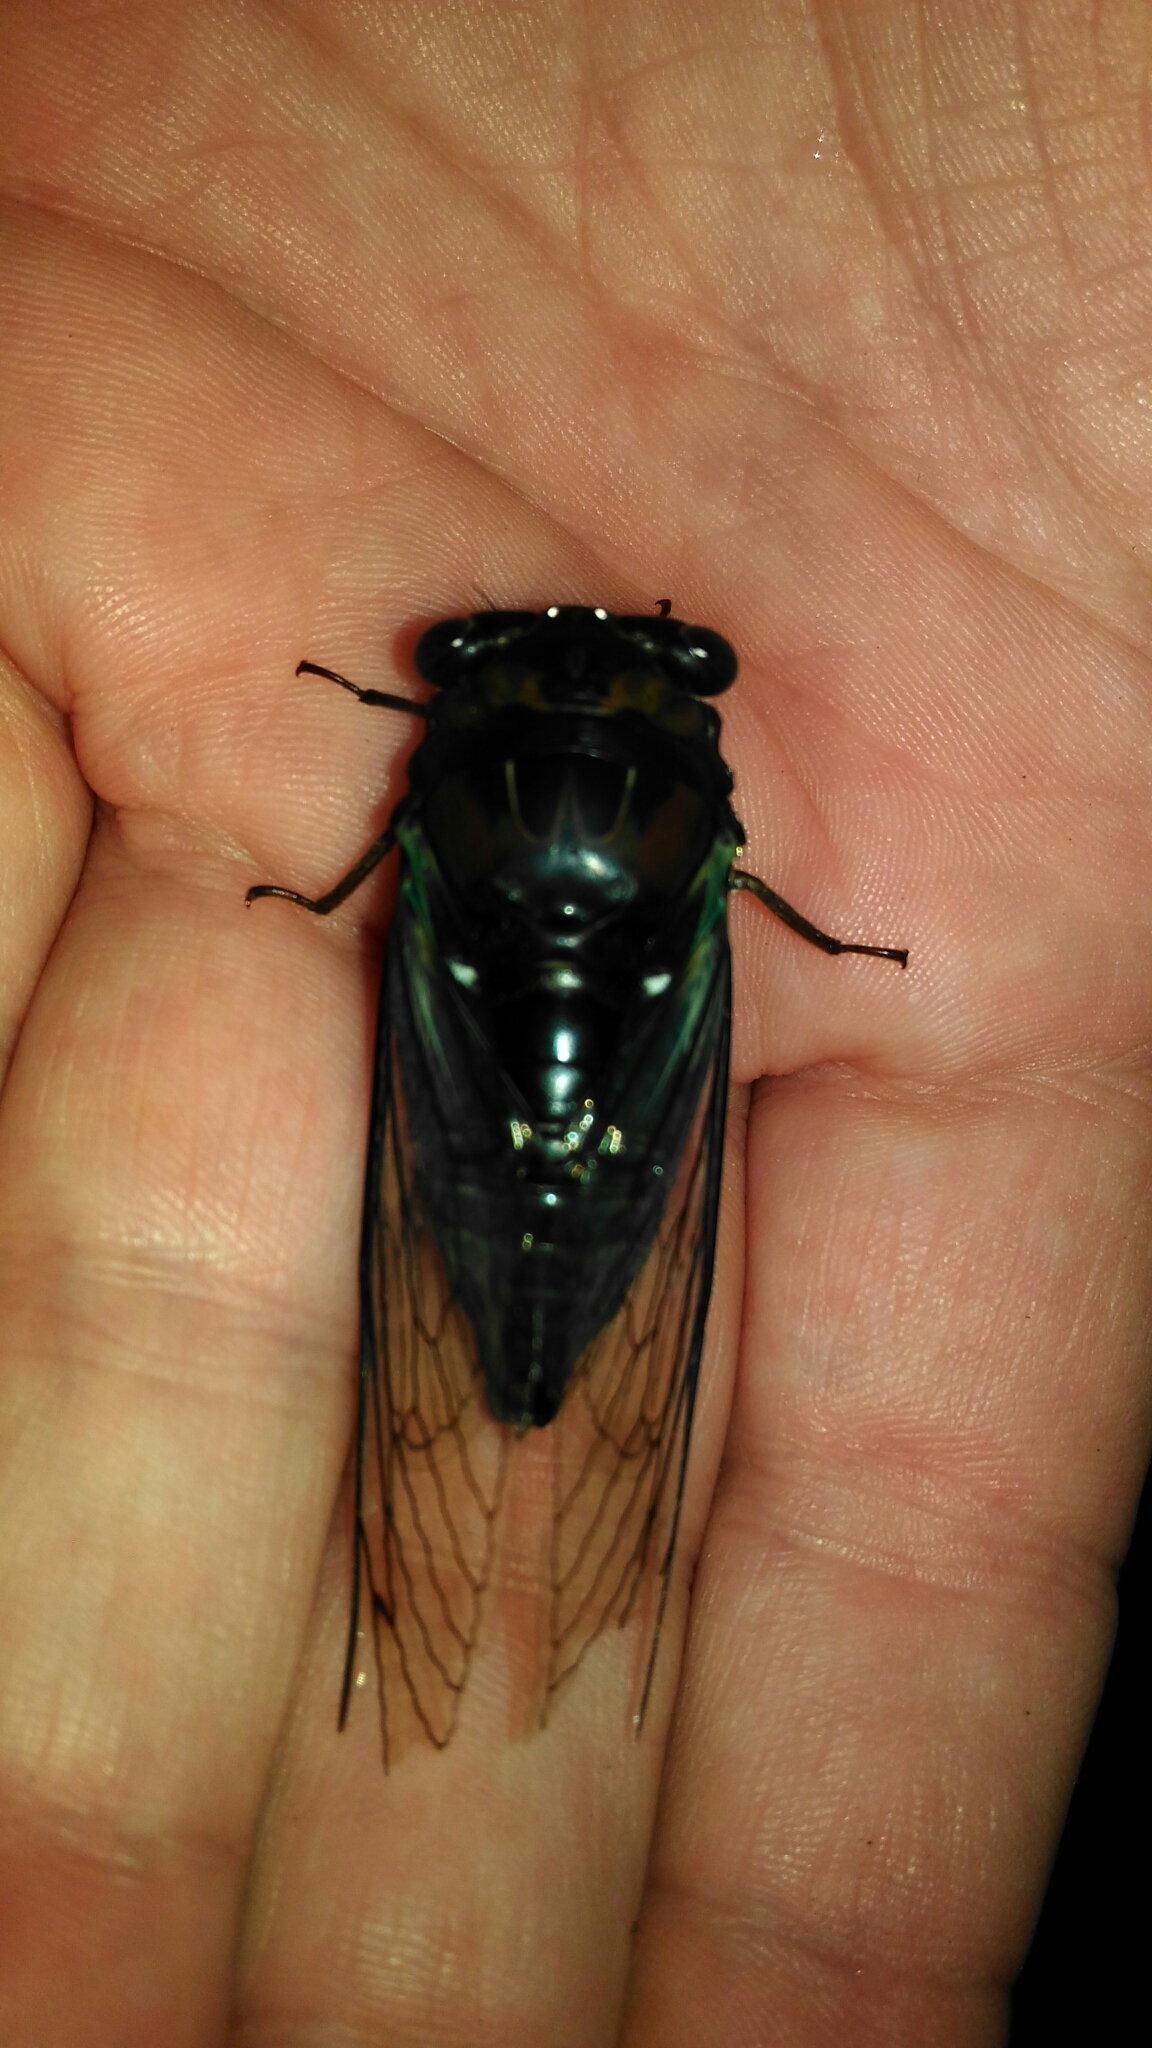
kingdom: Animalia
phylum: Arthropoda
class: Insecta
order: Hemiptera
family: Cicadidae
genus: Neotibicen
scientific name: Neotibicen lyricen
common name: Lyric cicada
